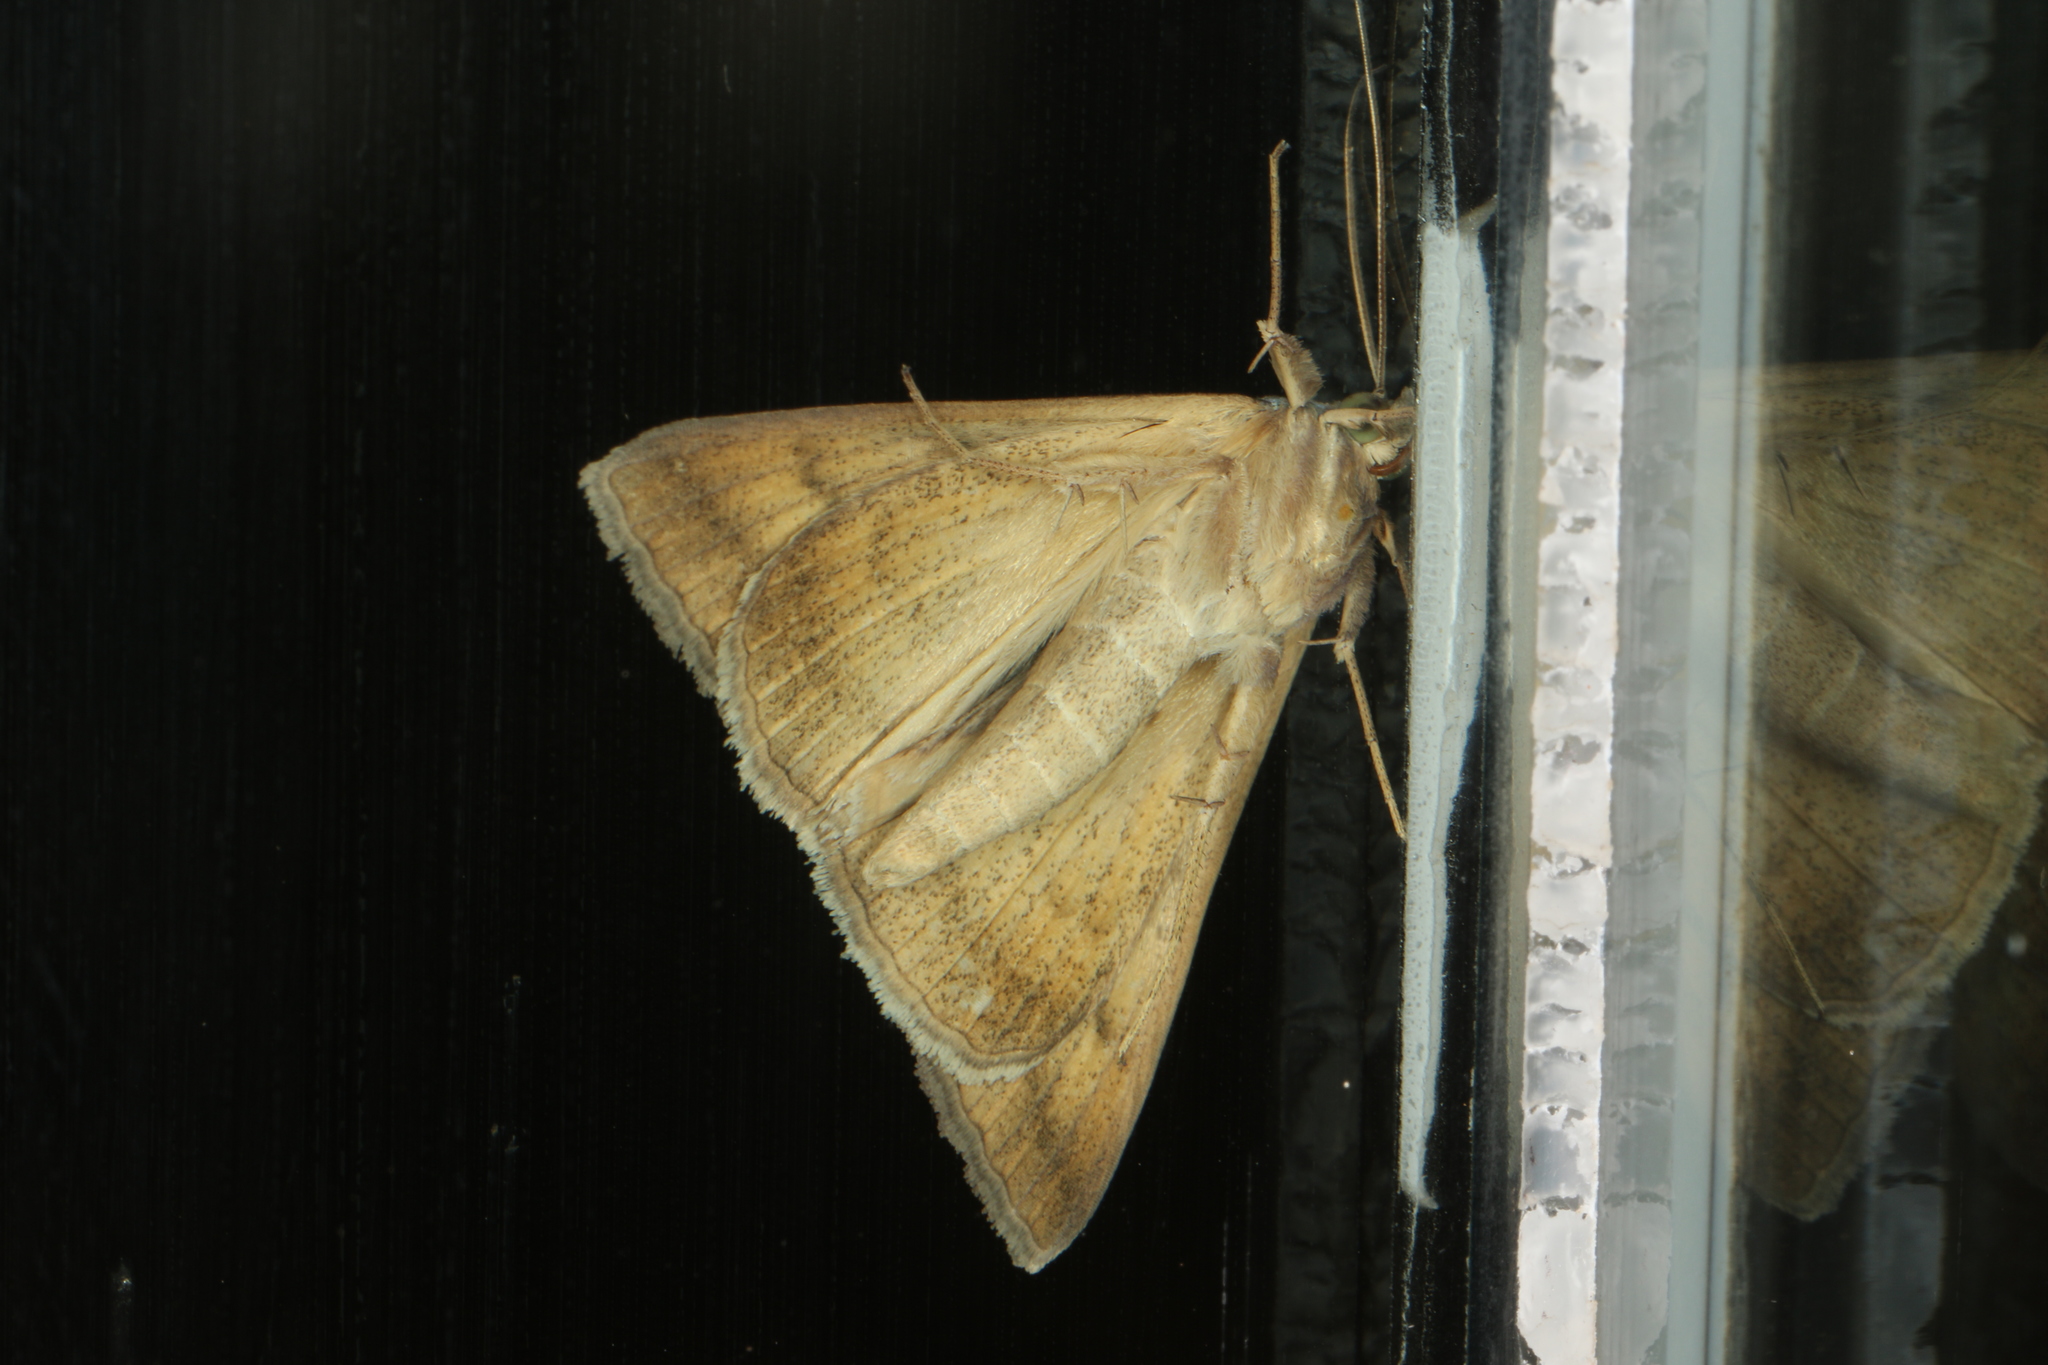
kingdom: Animalia
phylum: Arthropoda
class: Insecta
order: Lepidoptera
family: Erebidae
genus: Trigonodes
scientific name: Trigonodes hyppasia
